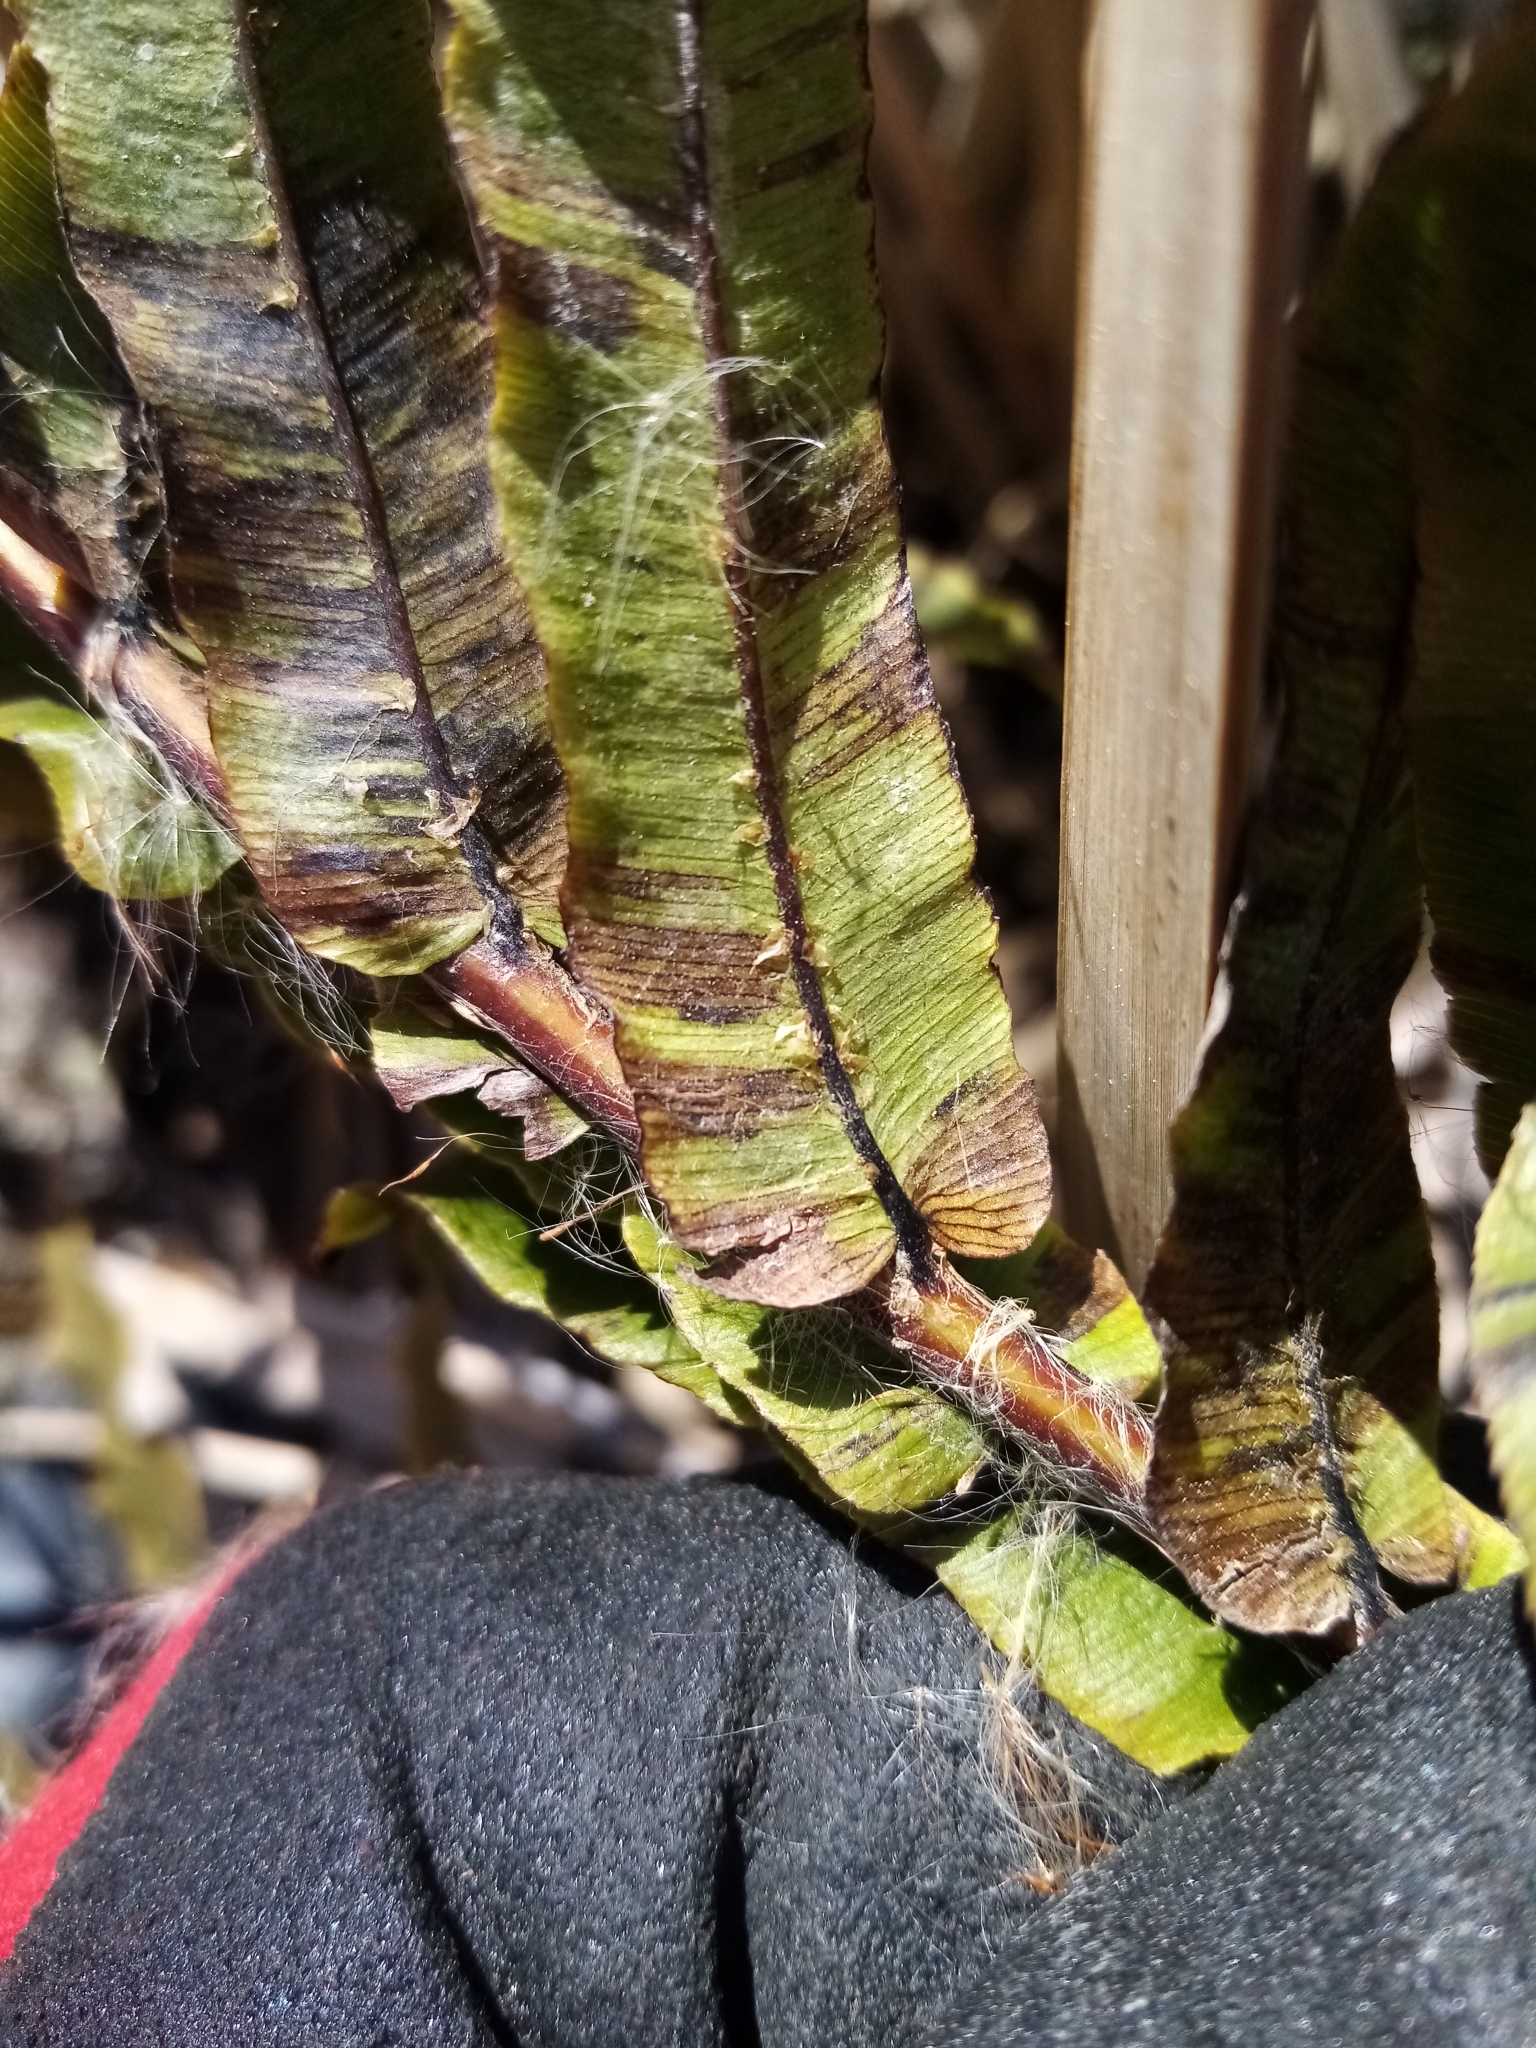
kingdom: Plantae
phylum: Tracheophyta
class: Polypodiopsida
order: Polypodiales
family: Blechnaceae
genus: Parablechnum
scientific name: Parablechnum minus
